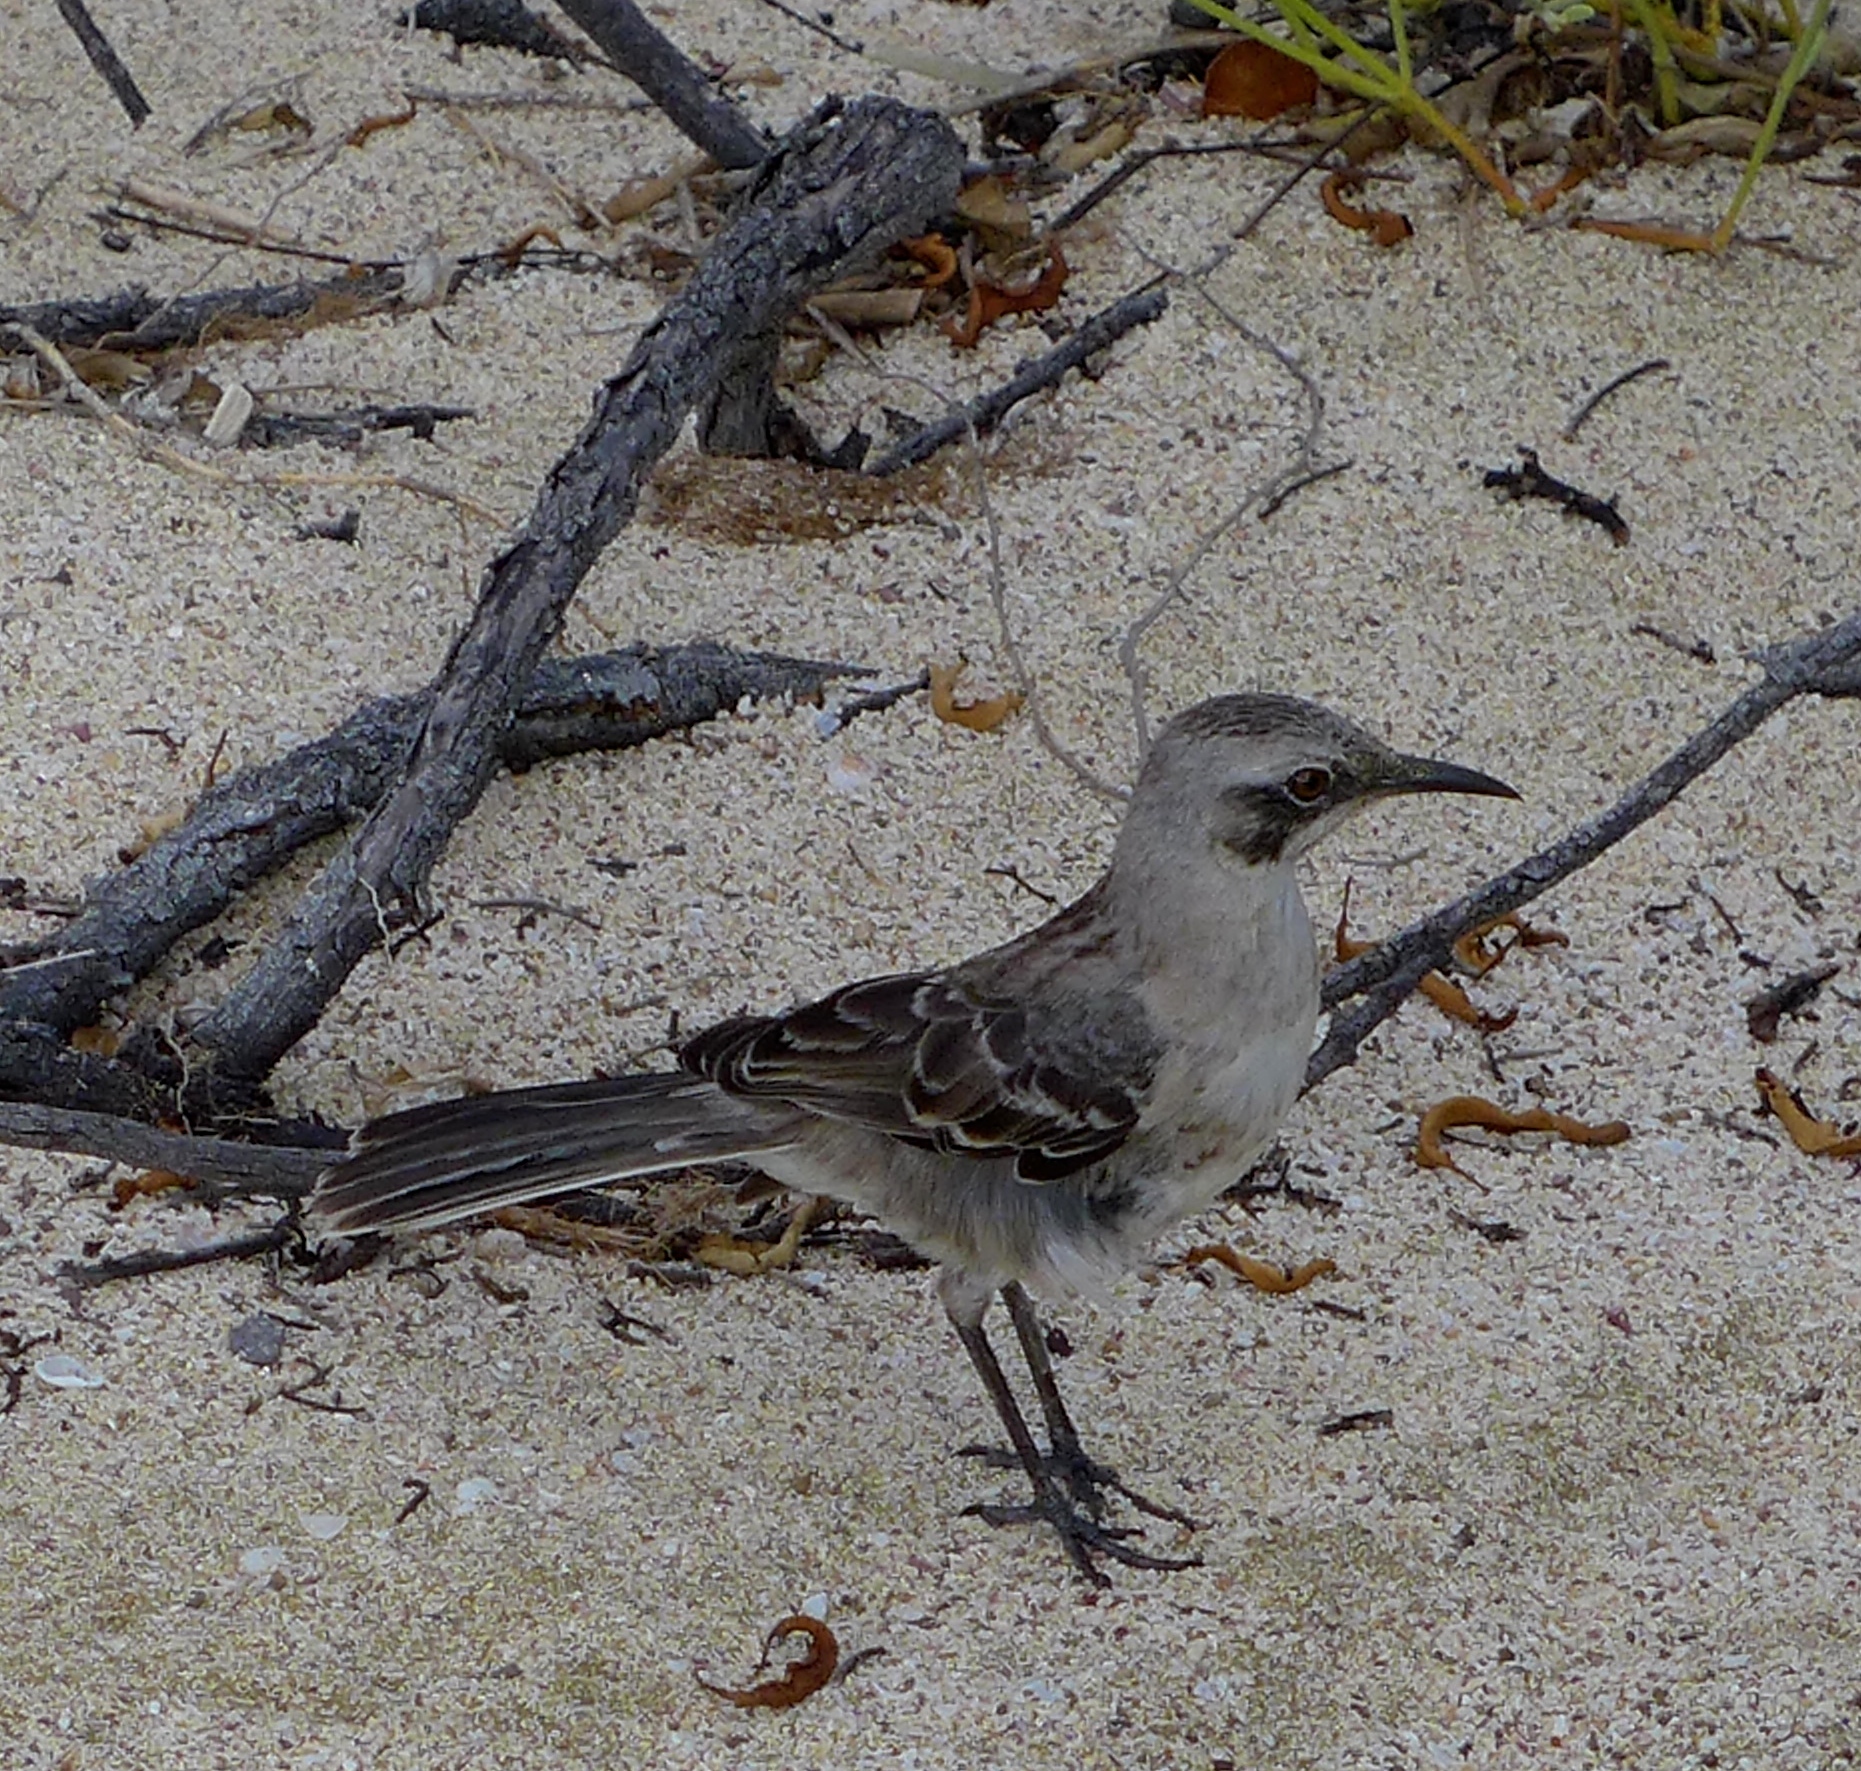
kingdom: Animalia
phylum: Chordata
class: Aves
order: Passeriformes
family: Mimidae
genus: Mimus
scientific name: Mimus melanotis
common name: San cristobal mockingbird
